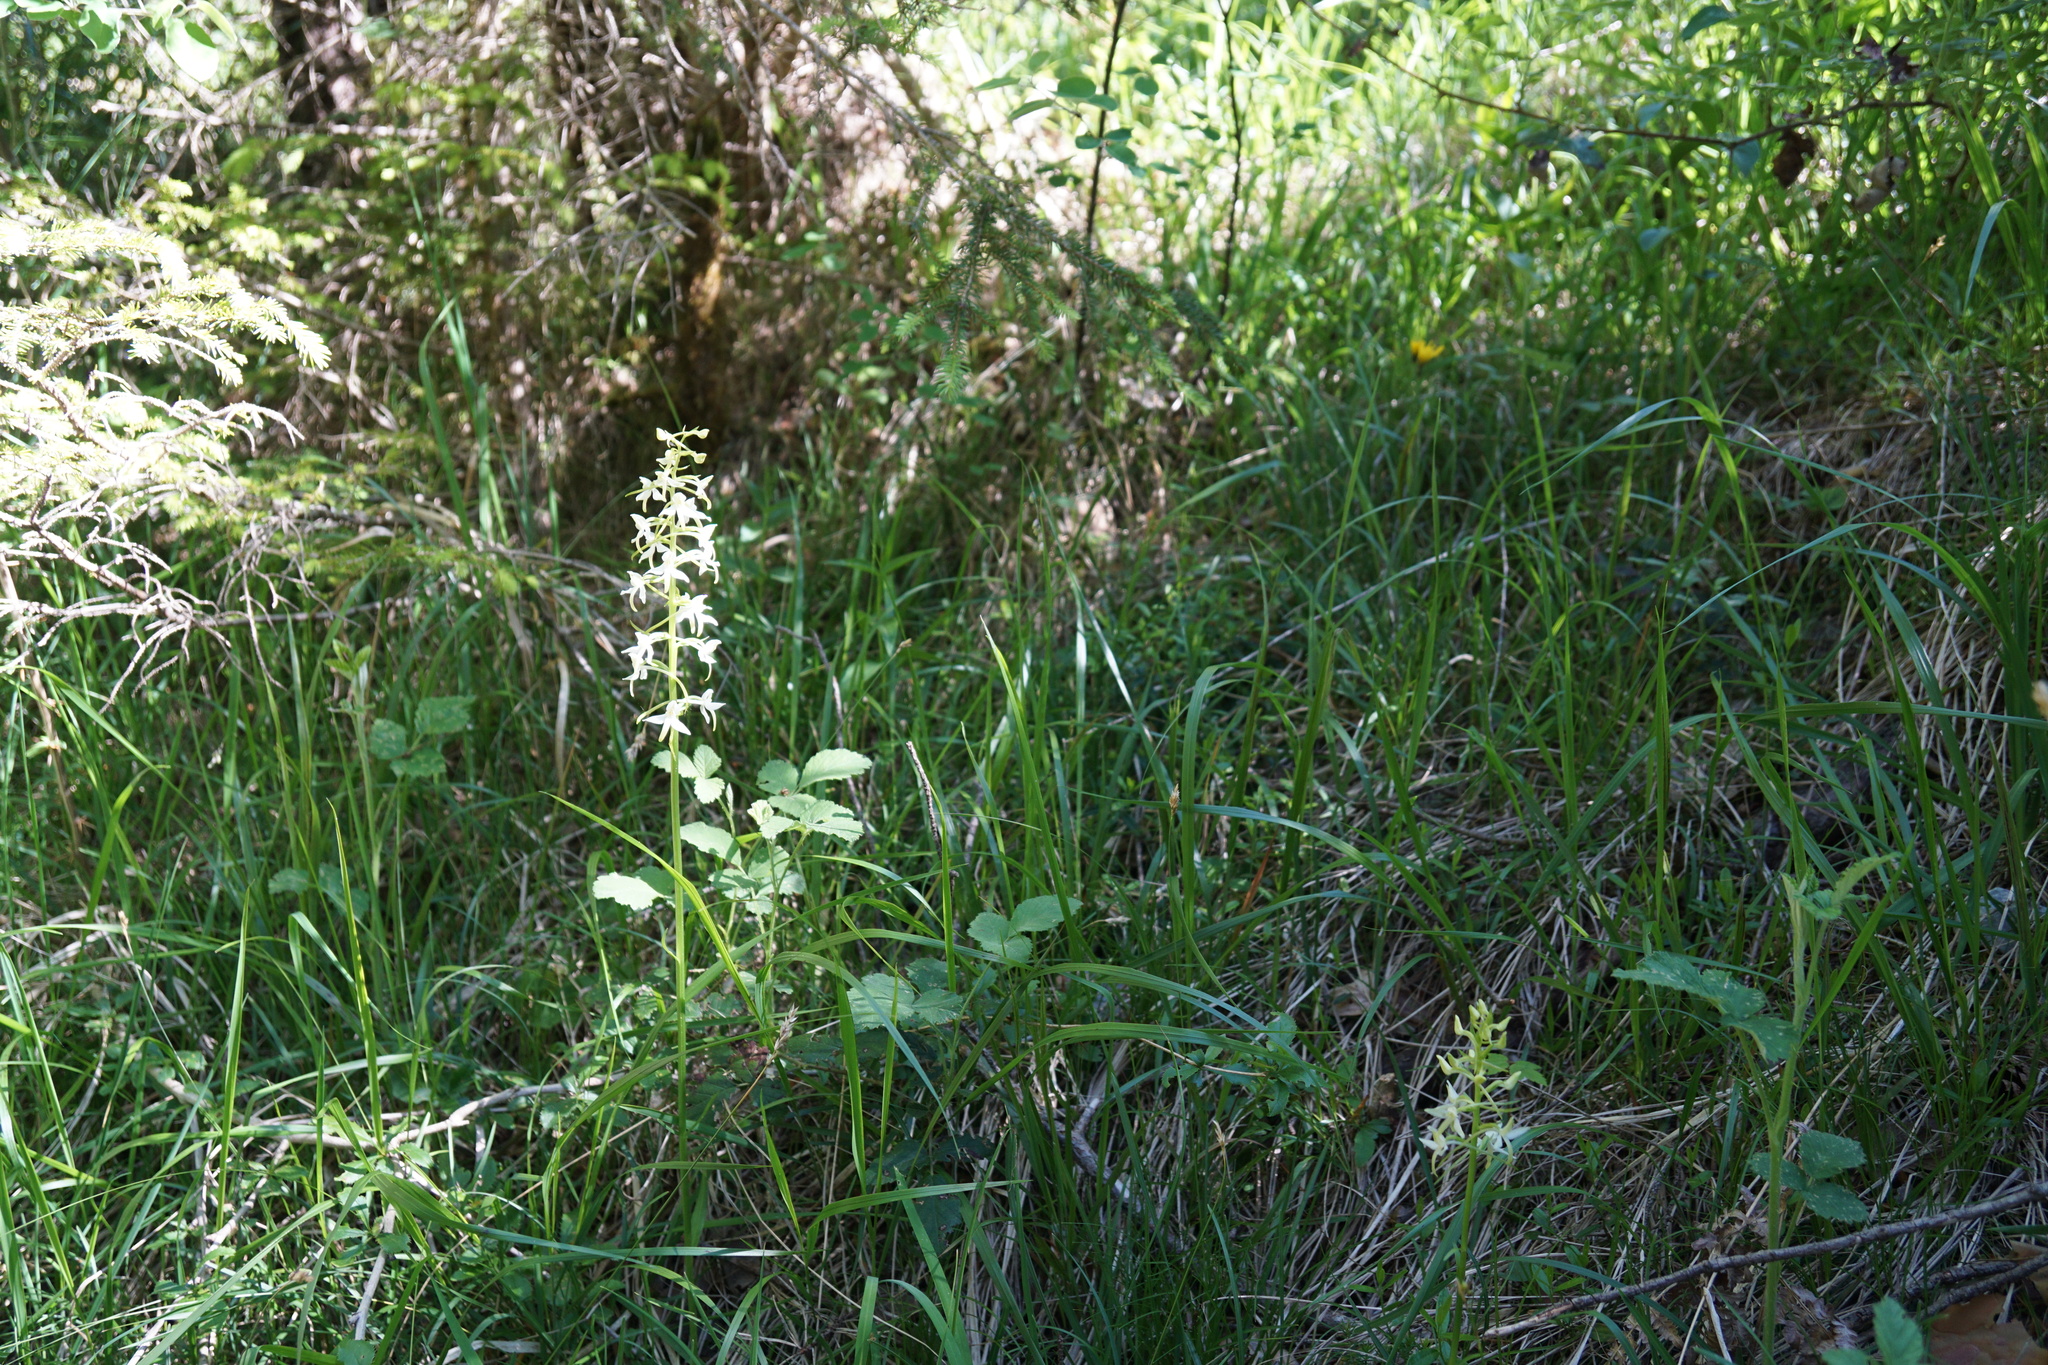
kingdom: Plantae
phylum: Tracheophyta
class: Liliopsida
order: Asparagales
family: Orchidaceae
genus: Platanthera
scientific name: Platanthera bifolia
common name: Lesser butterfly-orchid
